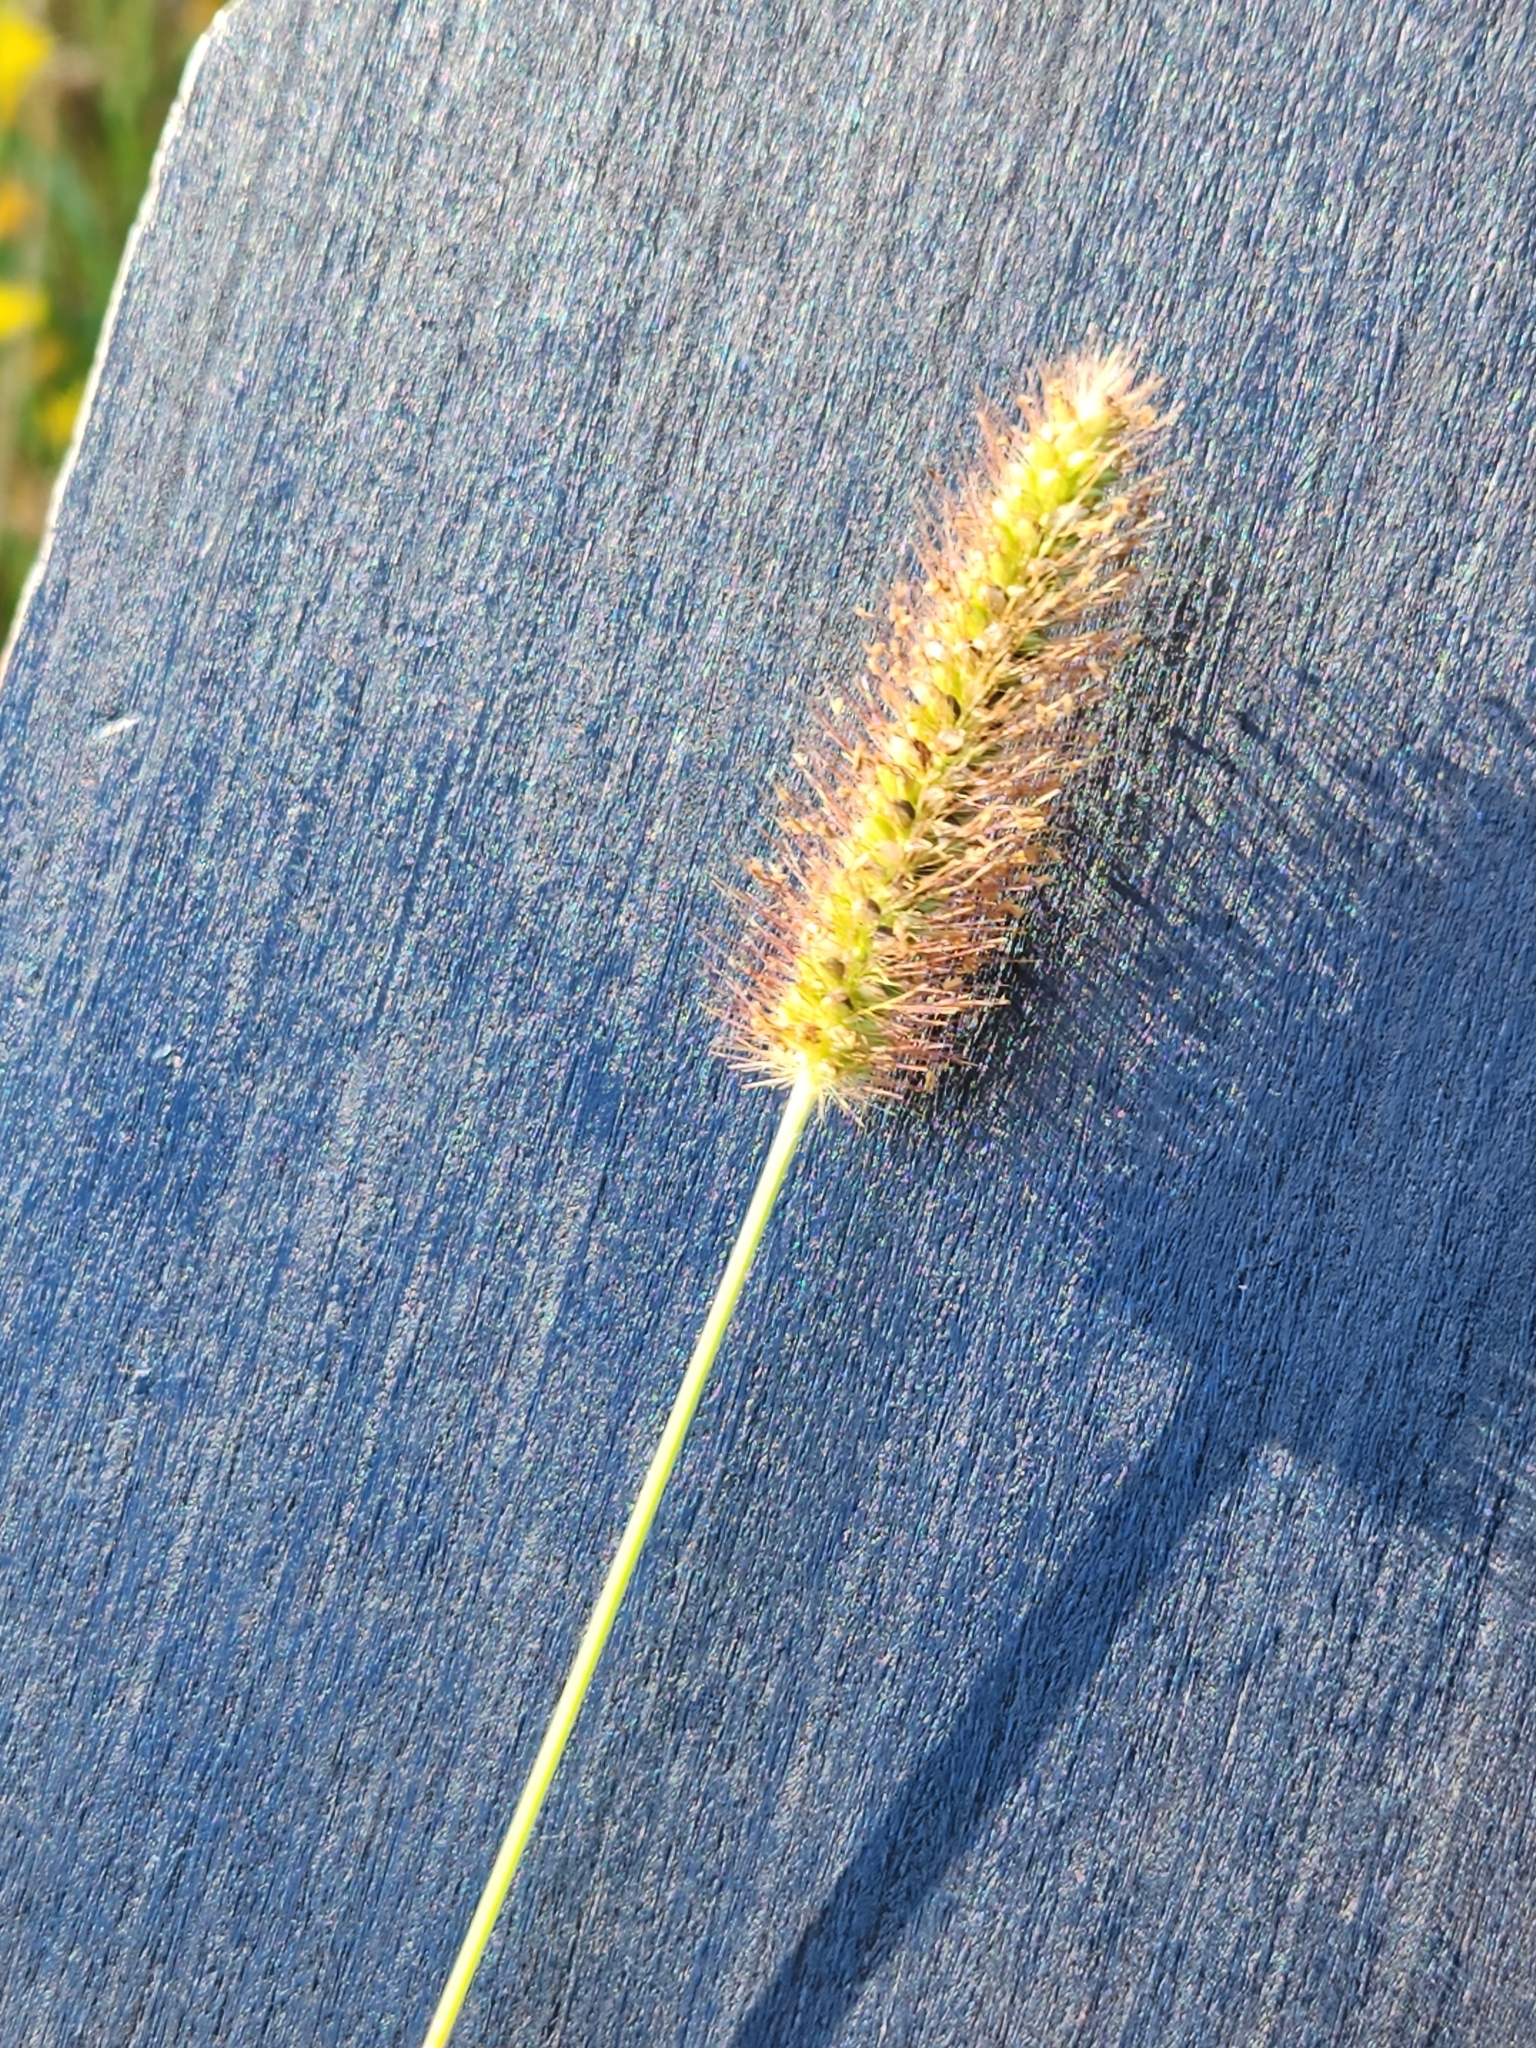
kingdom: Plantae
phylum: Tracheophyta
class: Liliopsida
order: Poales
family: Poaceae
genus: Setaria
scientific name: Setaria parviflora
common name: Knotroot bristle-grass
